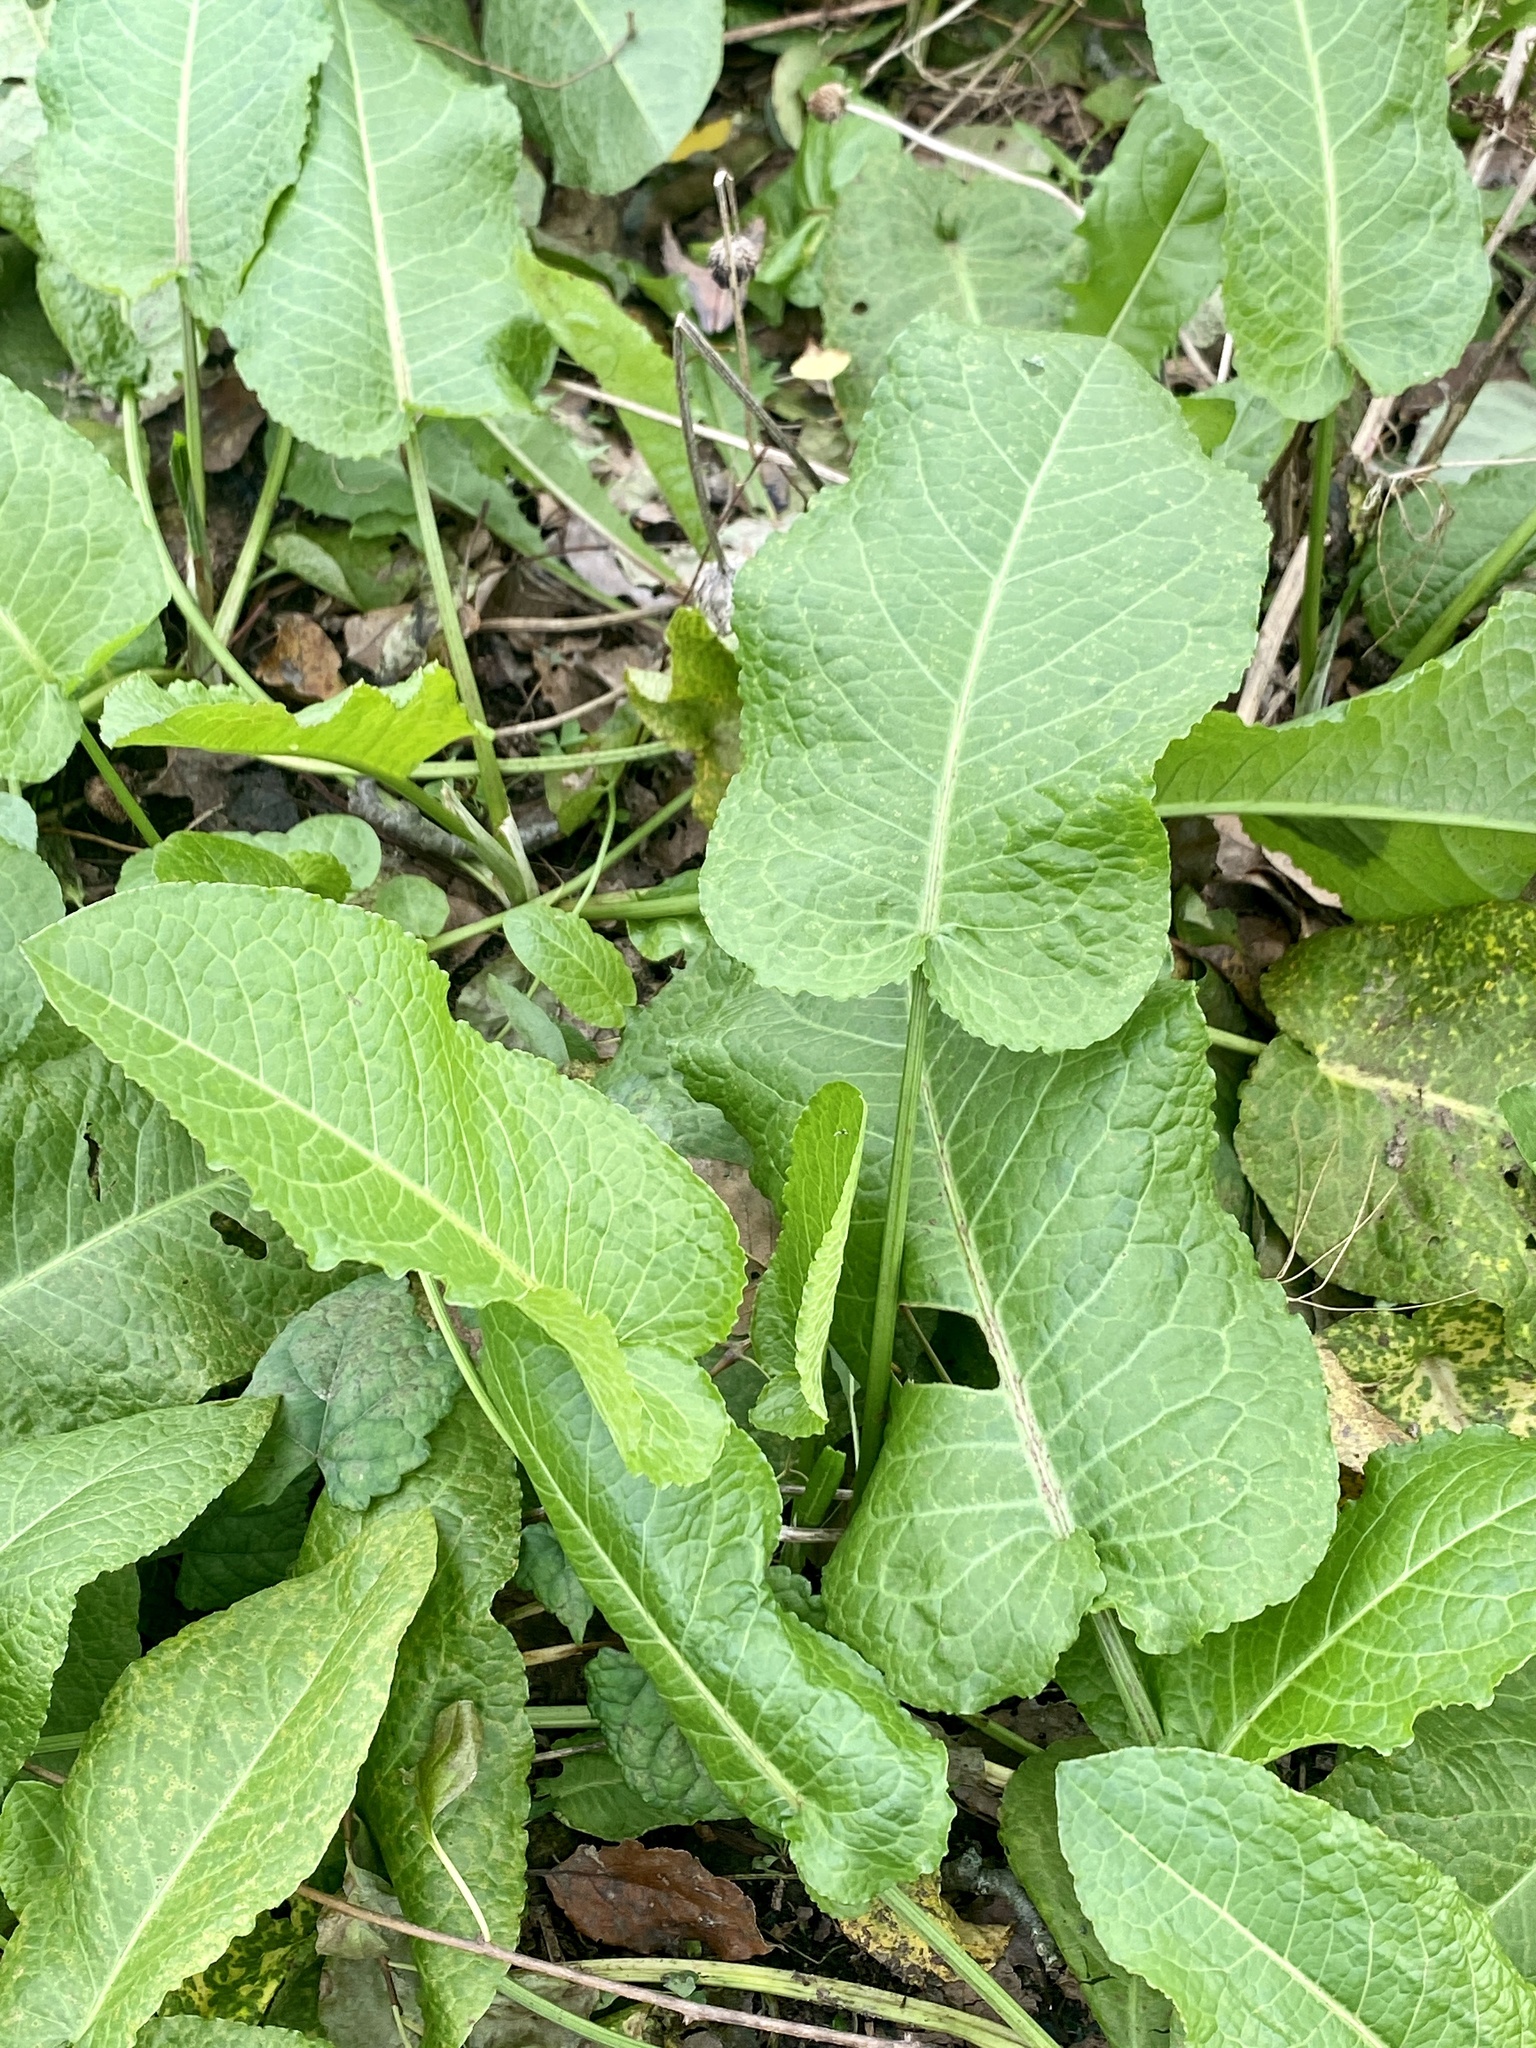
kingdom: Plantae
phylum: Tracheophyta
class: Magnoliopsida
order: Caryophyllales
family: Polygonaceae
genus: Rumex
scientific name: Rumex obtusifolius
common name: Bitter dock
